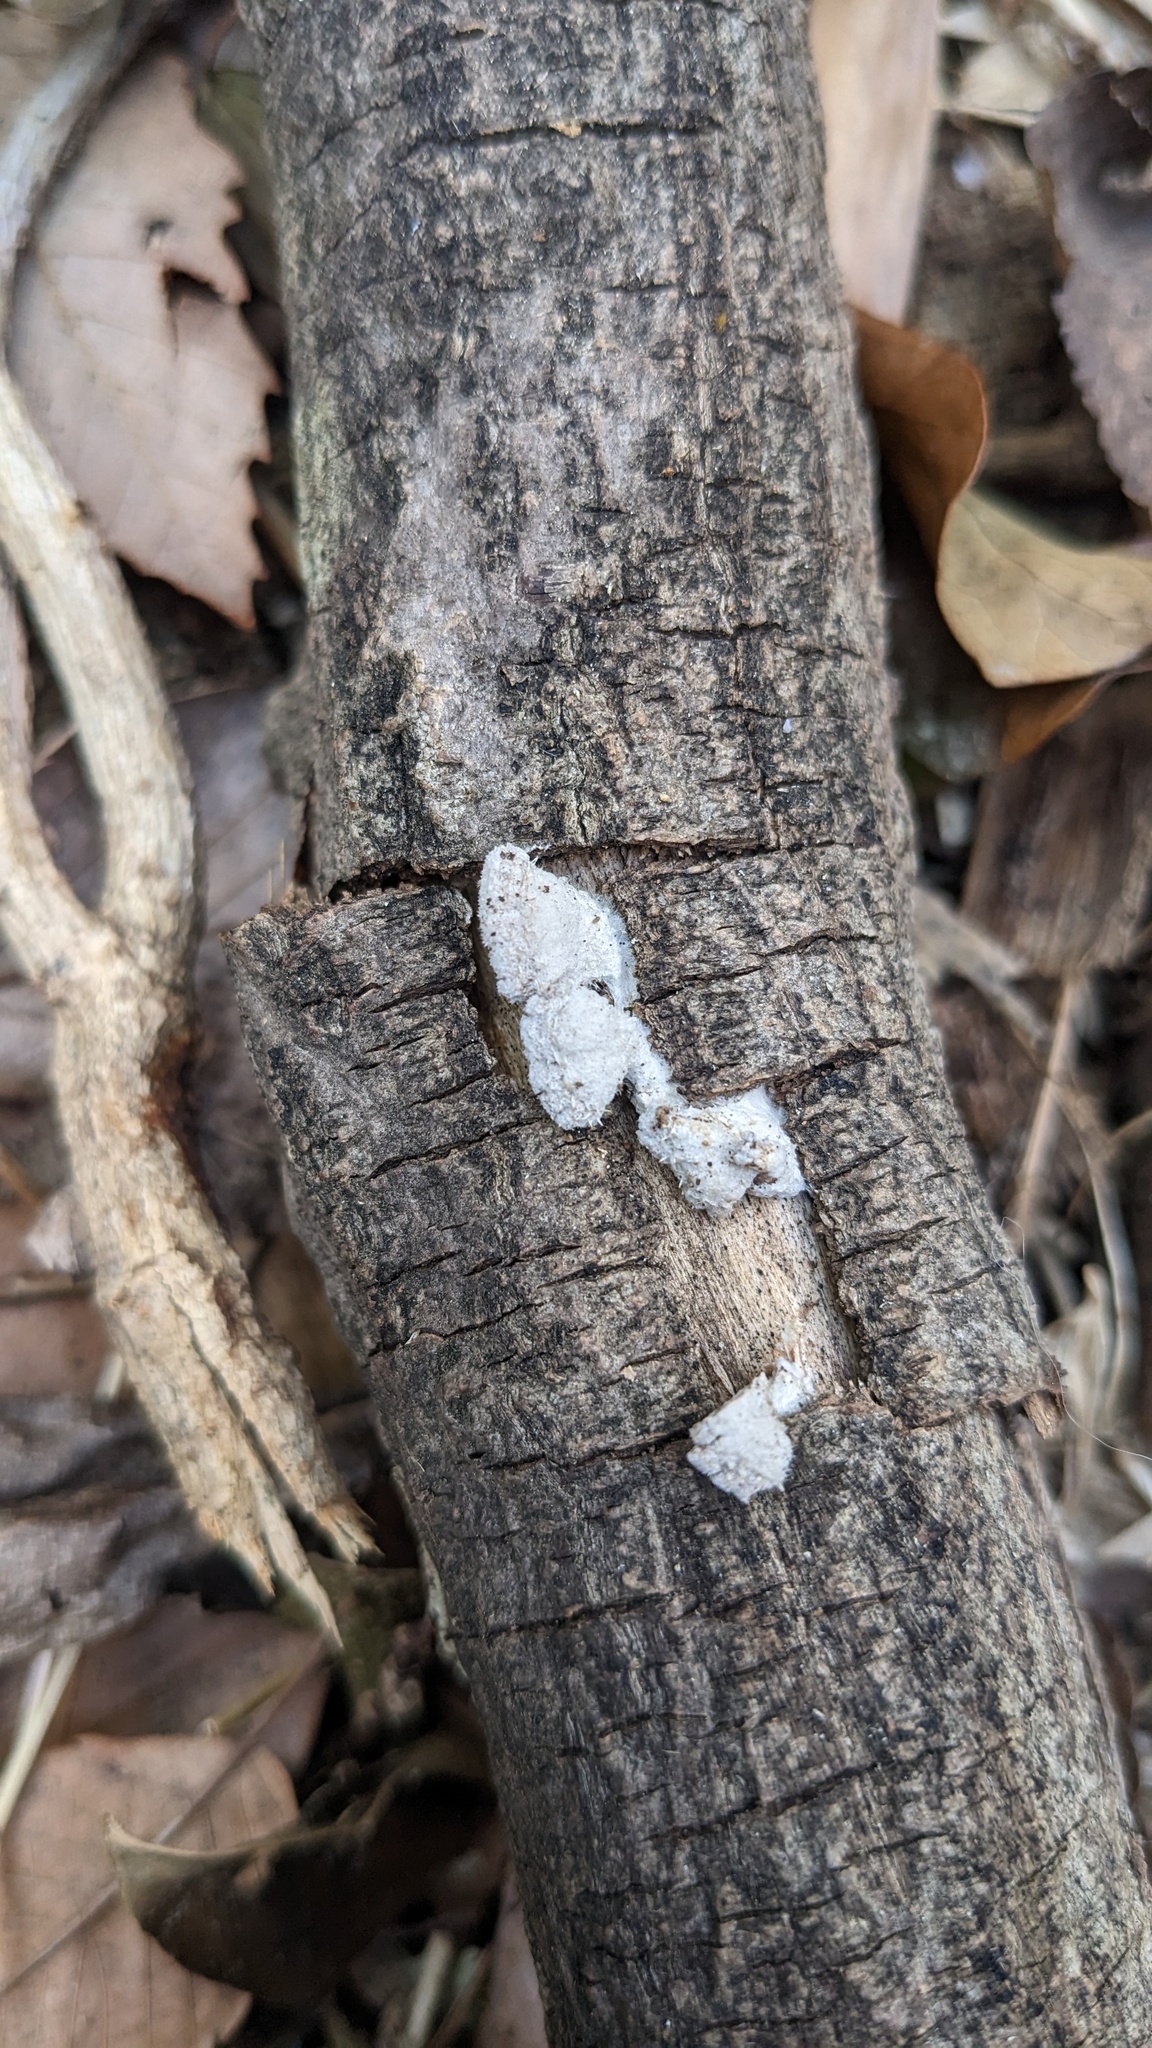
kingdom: Fungi
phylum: Basidiomycota
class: Agaricomycetes
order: Agaricales
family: Schizophyllaceae
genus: Schizophyllum
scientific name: Schizophyllum commune
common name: Common porecrust
